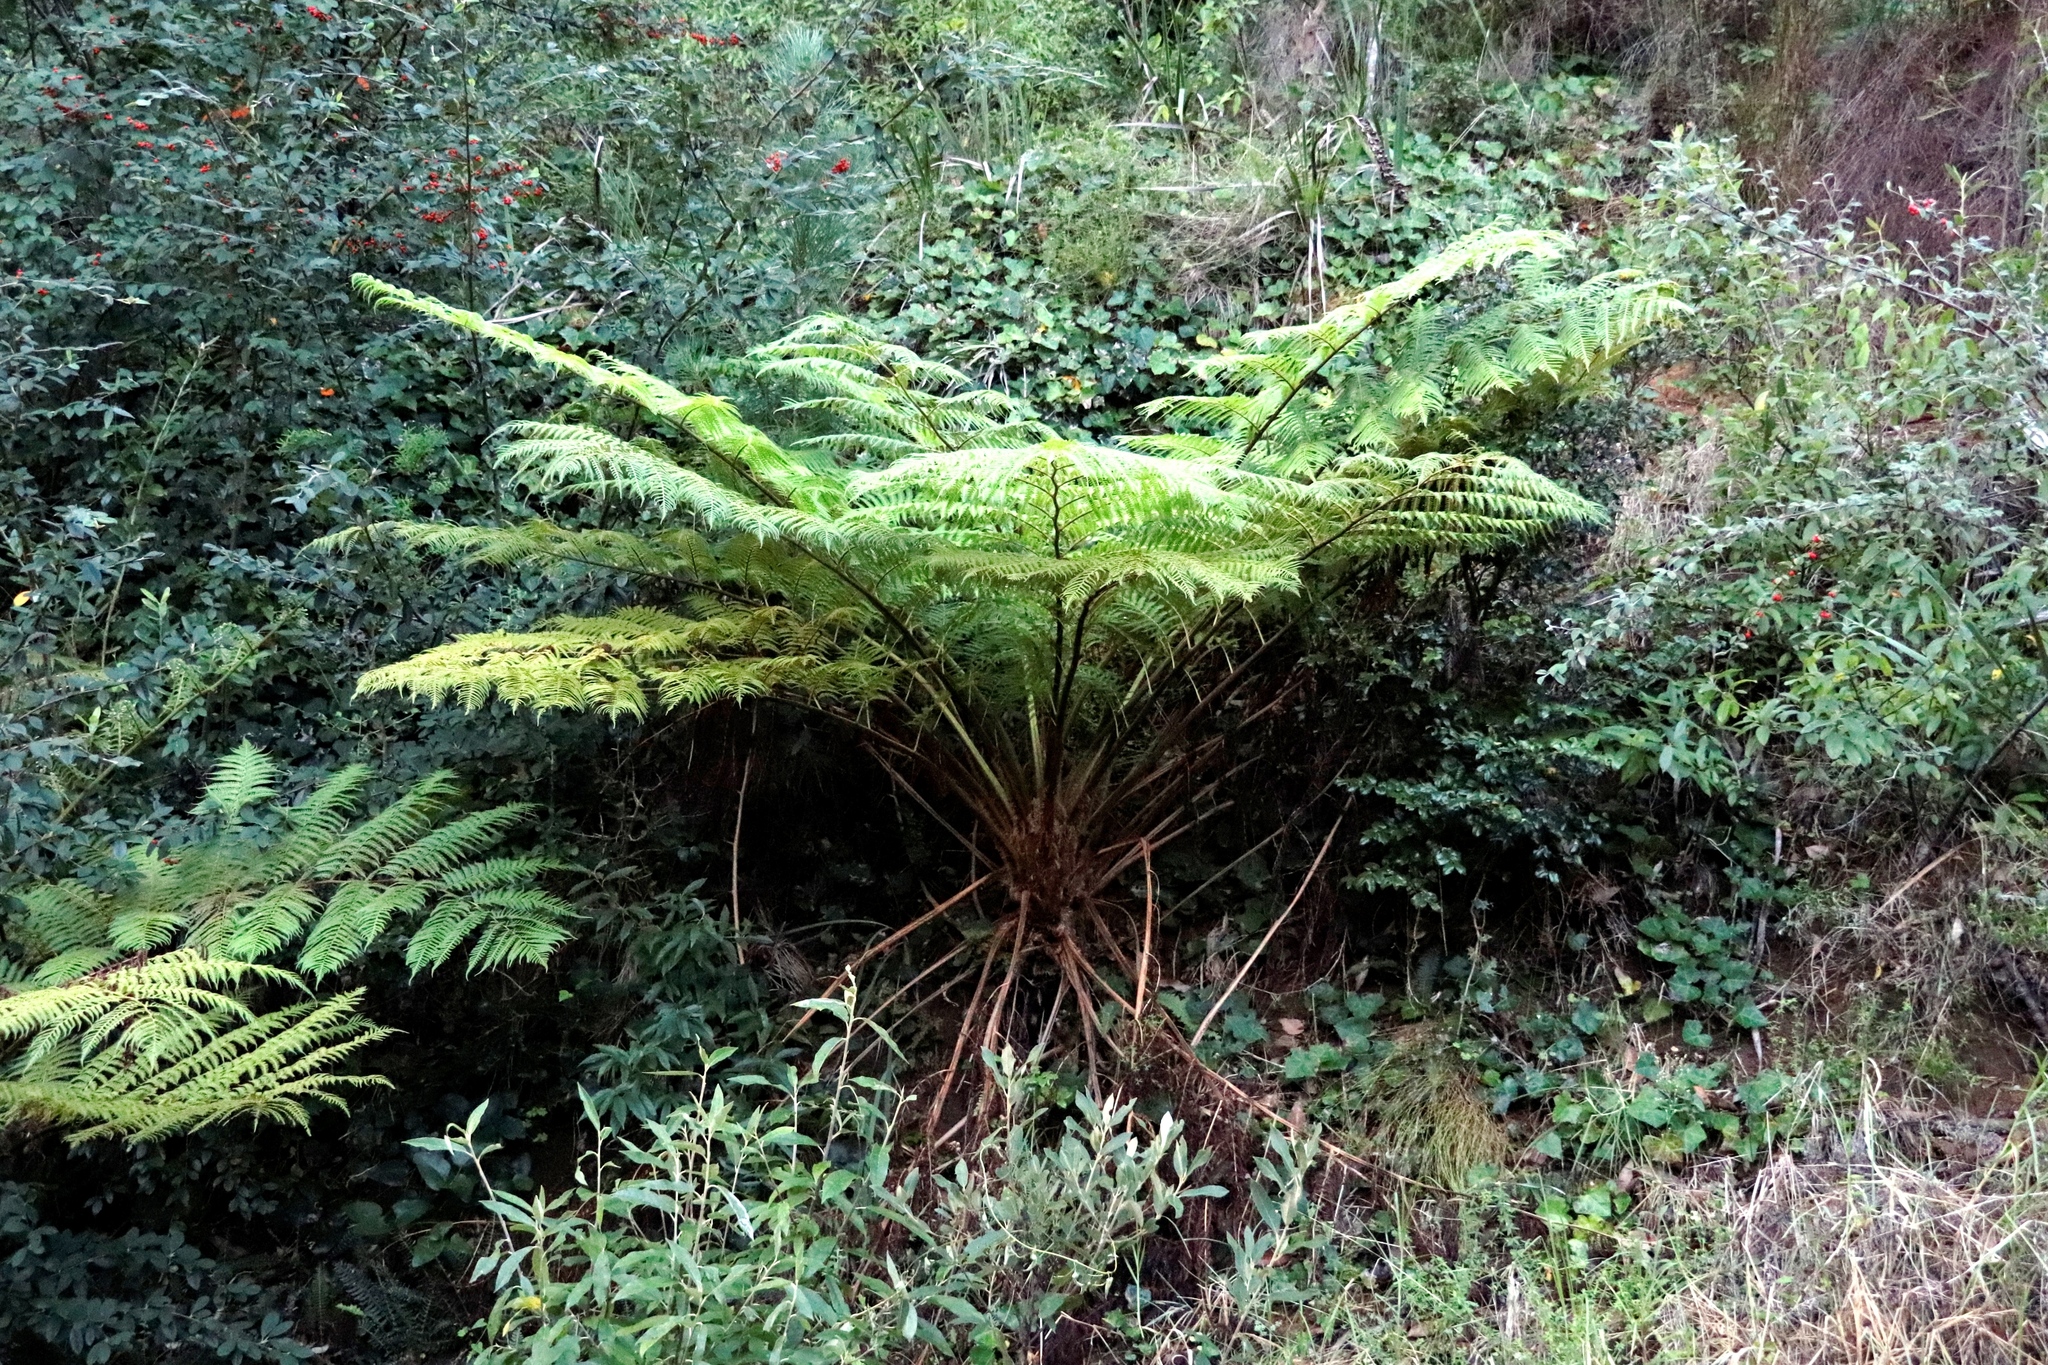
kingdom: Plantae
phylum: Tracheophyta
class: Polypodiopsida
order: Cyatheales
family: Cyatheaceae
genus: Sphaeropteris
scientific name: Sphaeropteris cooperi
